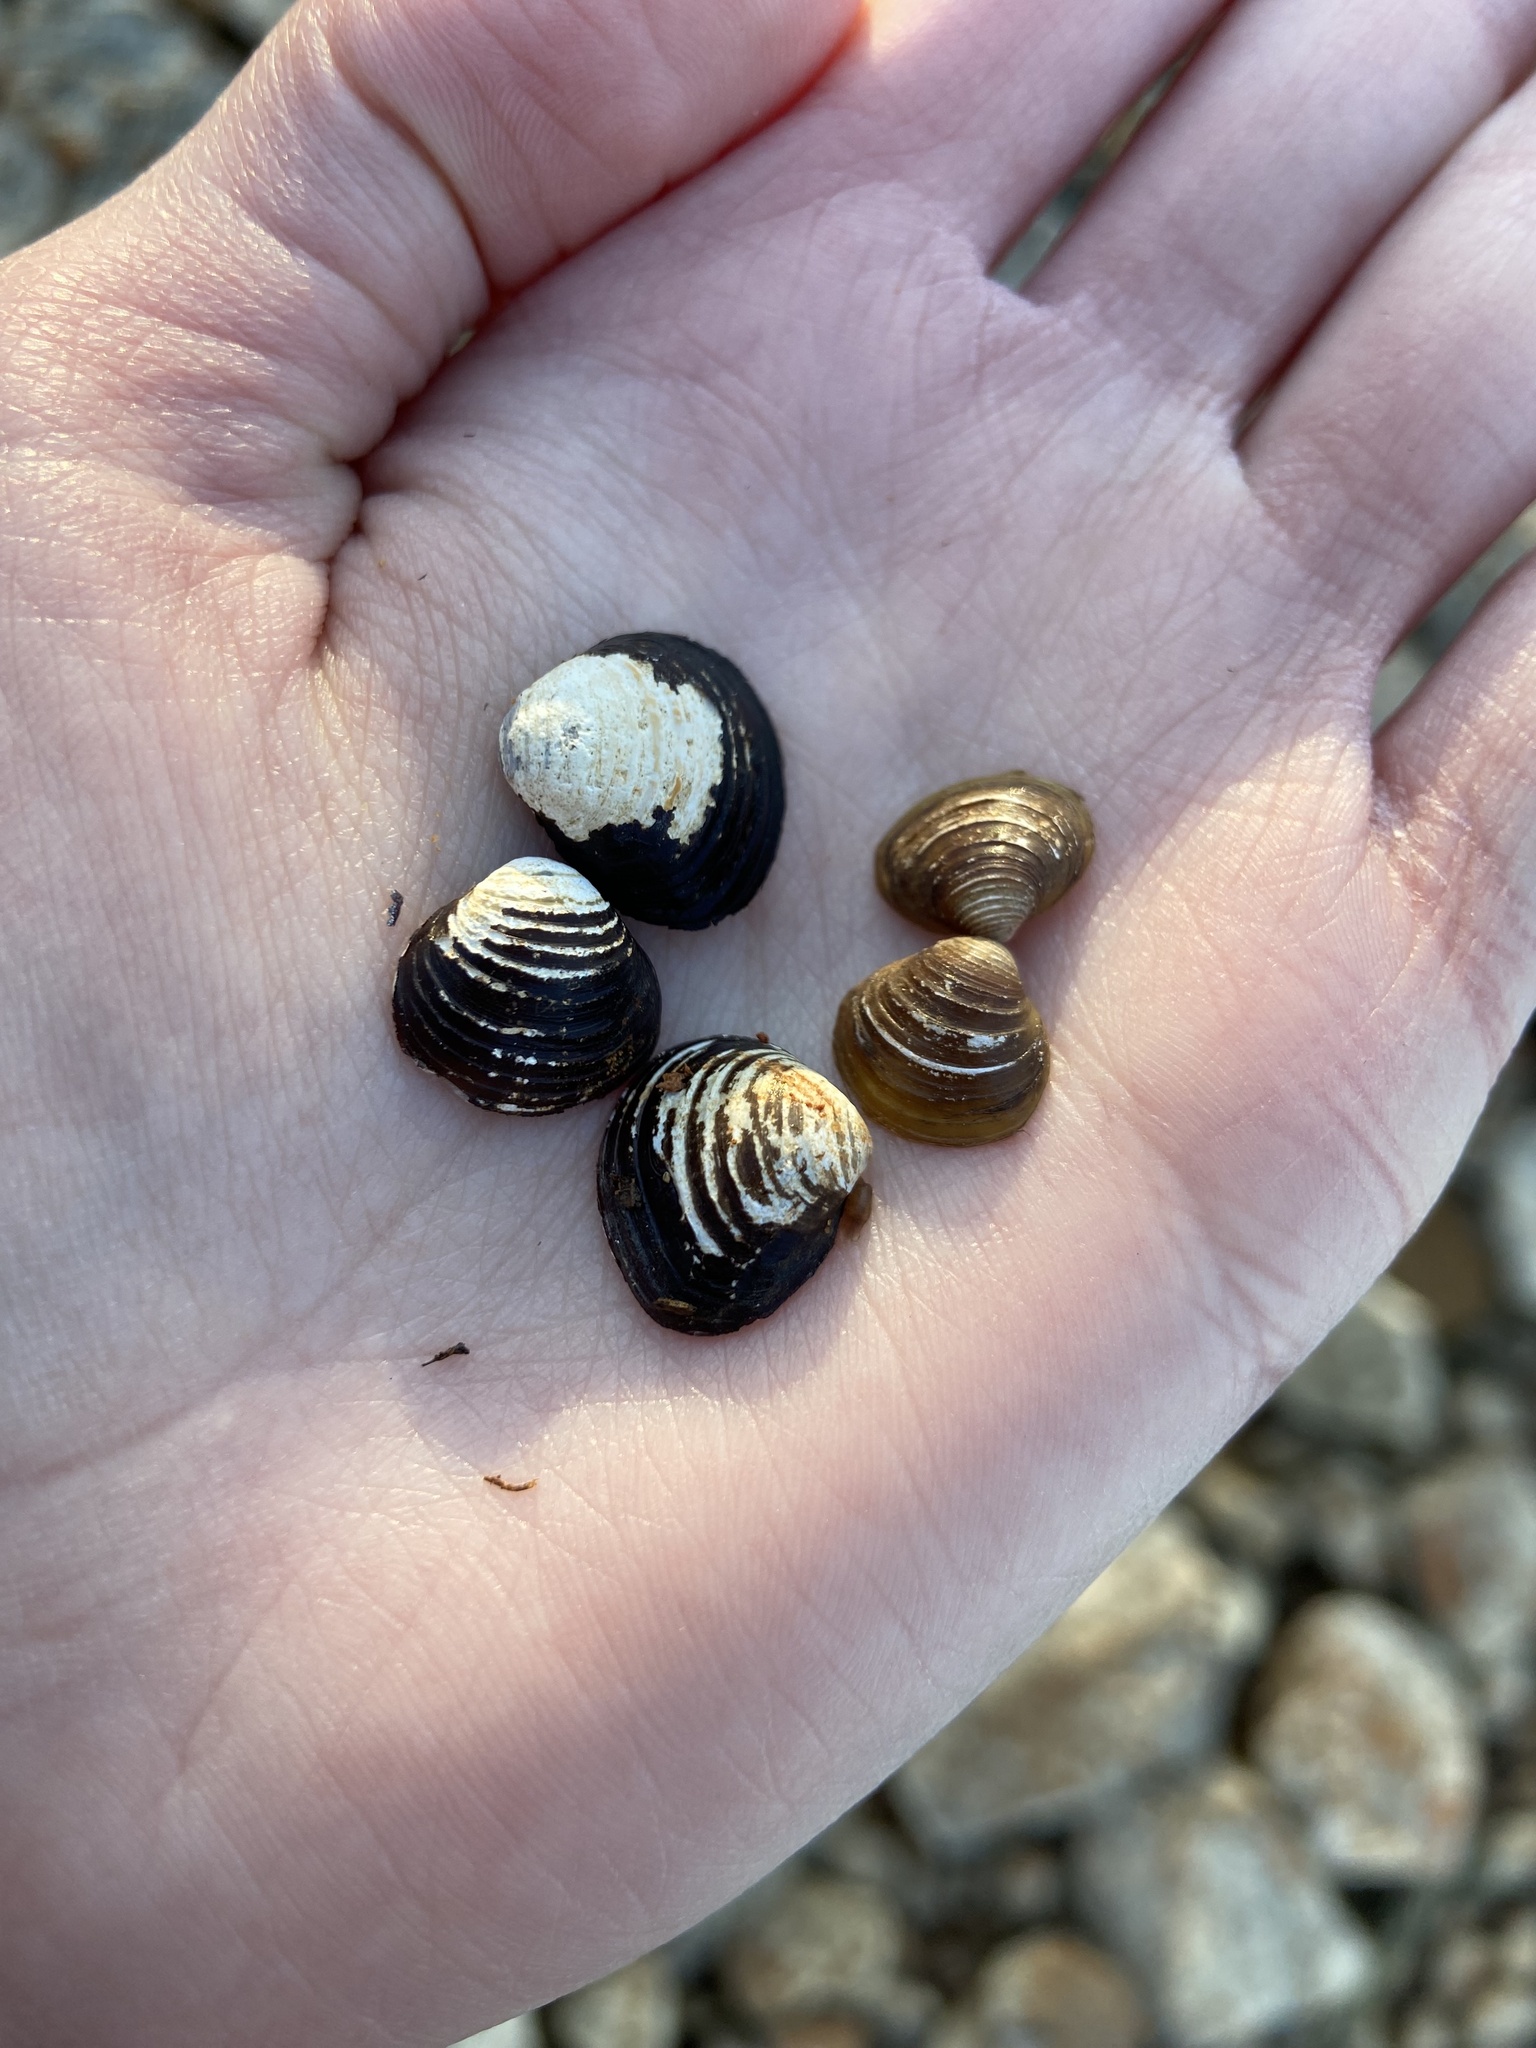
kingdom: Animalia
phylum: Mollusca
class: Bivalvia
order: Venerida
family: Cyrenidae
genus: Corbicula
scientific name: Corbicula fluminea
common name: Asian clam
